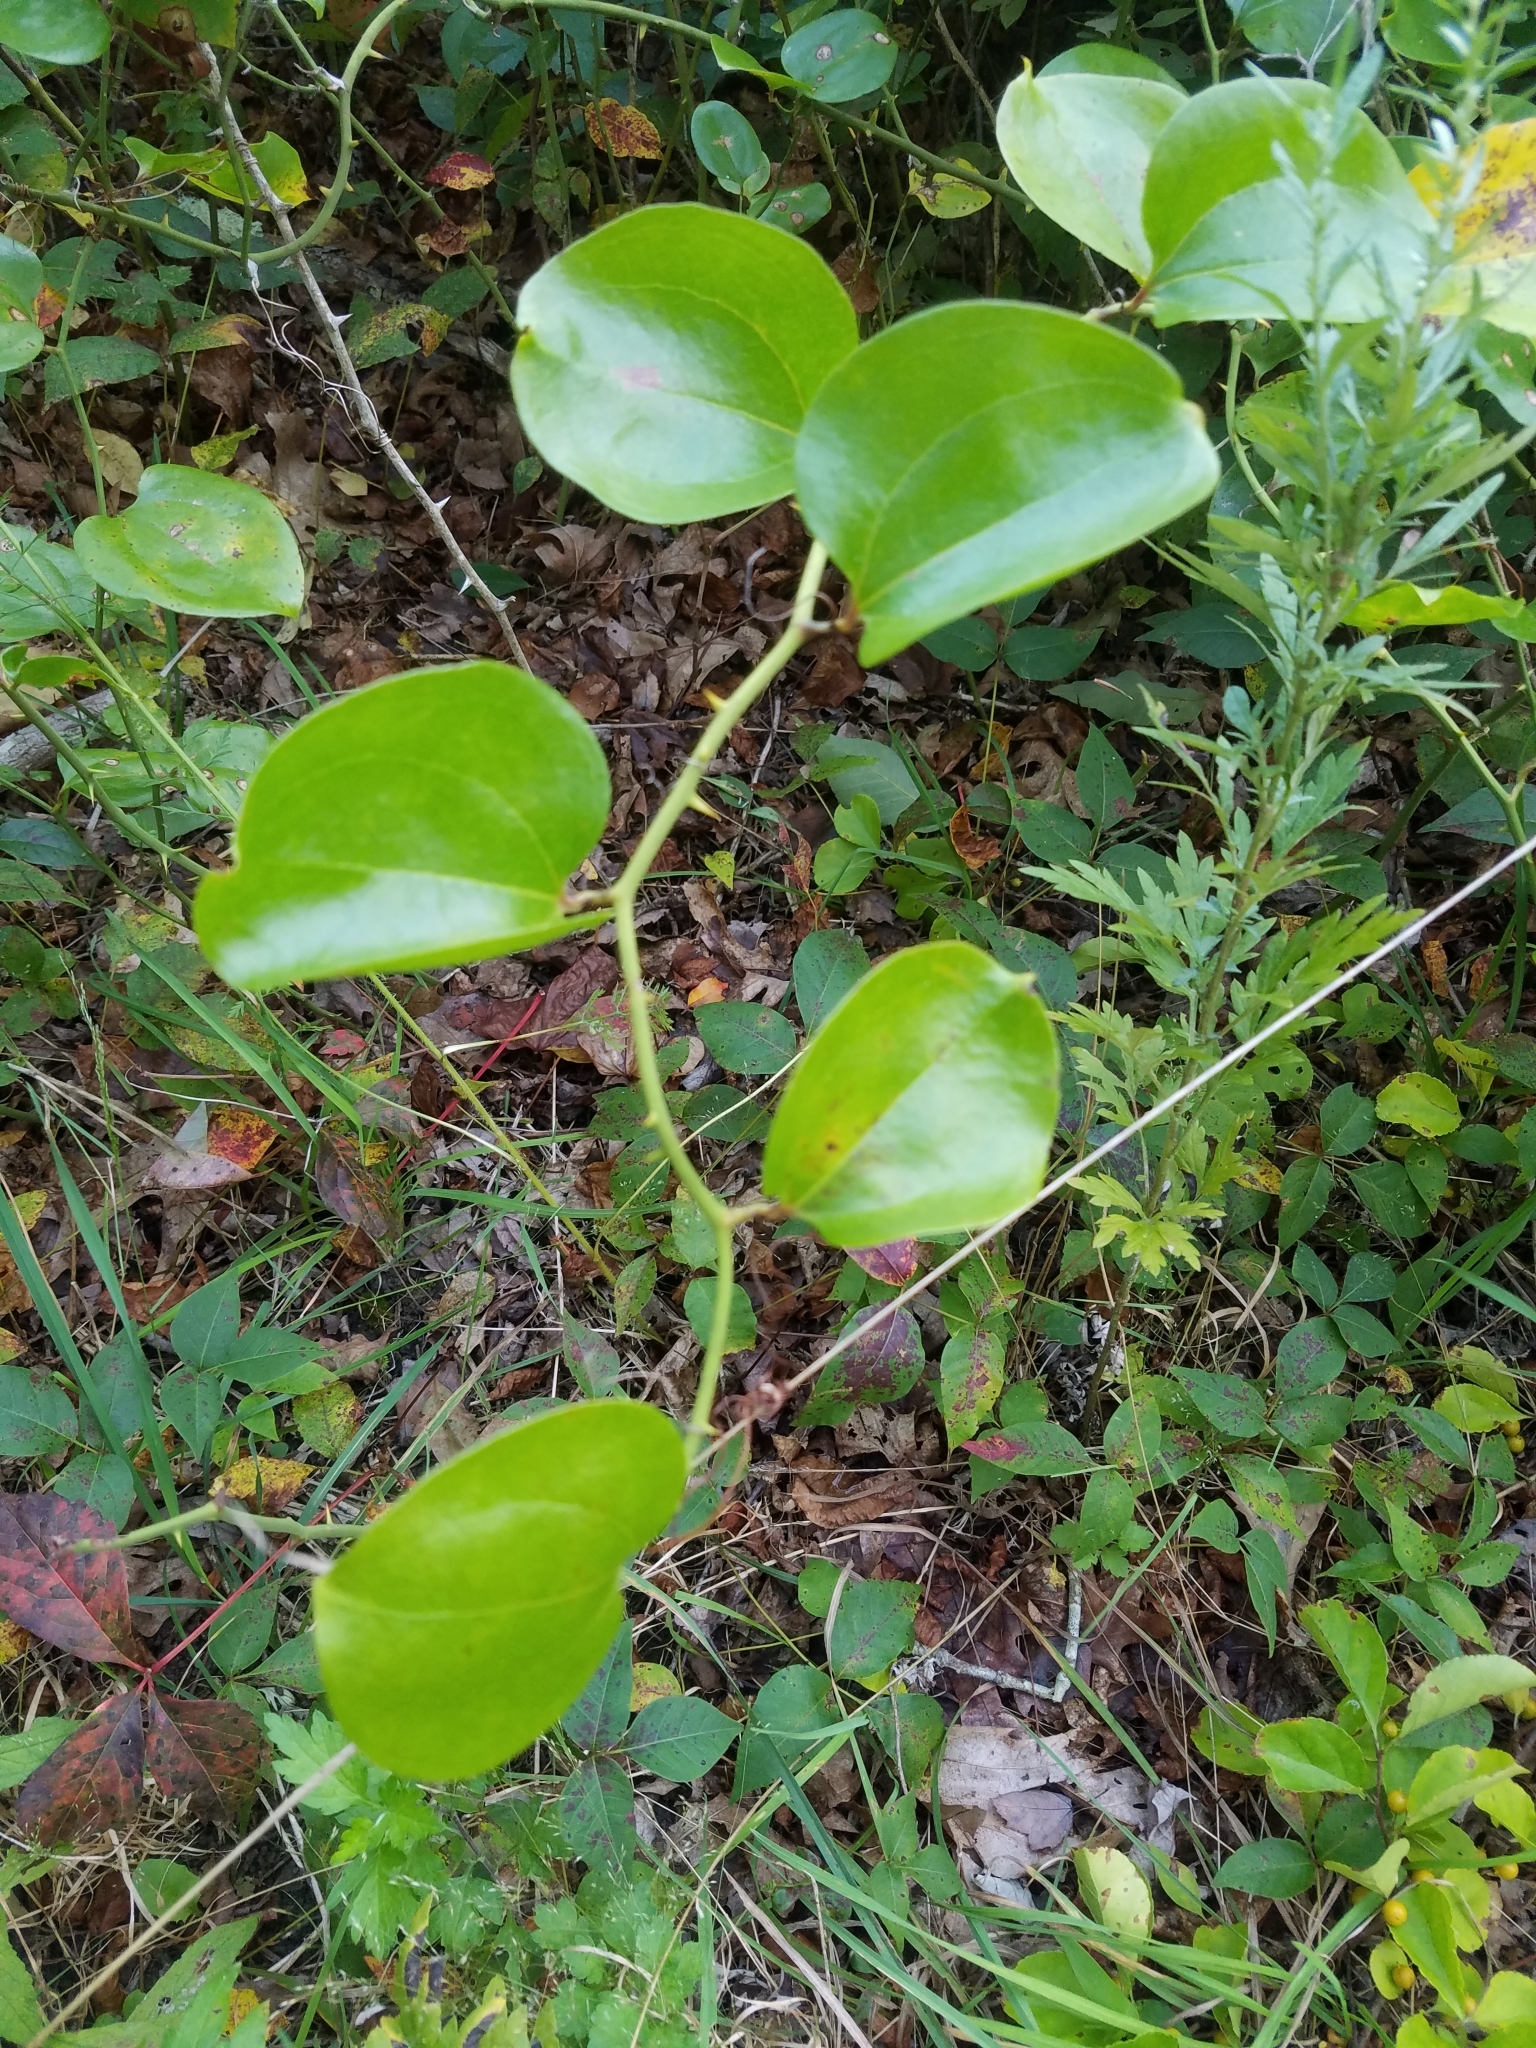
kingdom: Plantae
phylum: Tracheophyta
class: Liliopsida
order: Liliales
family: Smilacaceae
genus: Smilax
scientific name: Smilax rotundifolia
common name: Bullbriar
